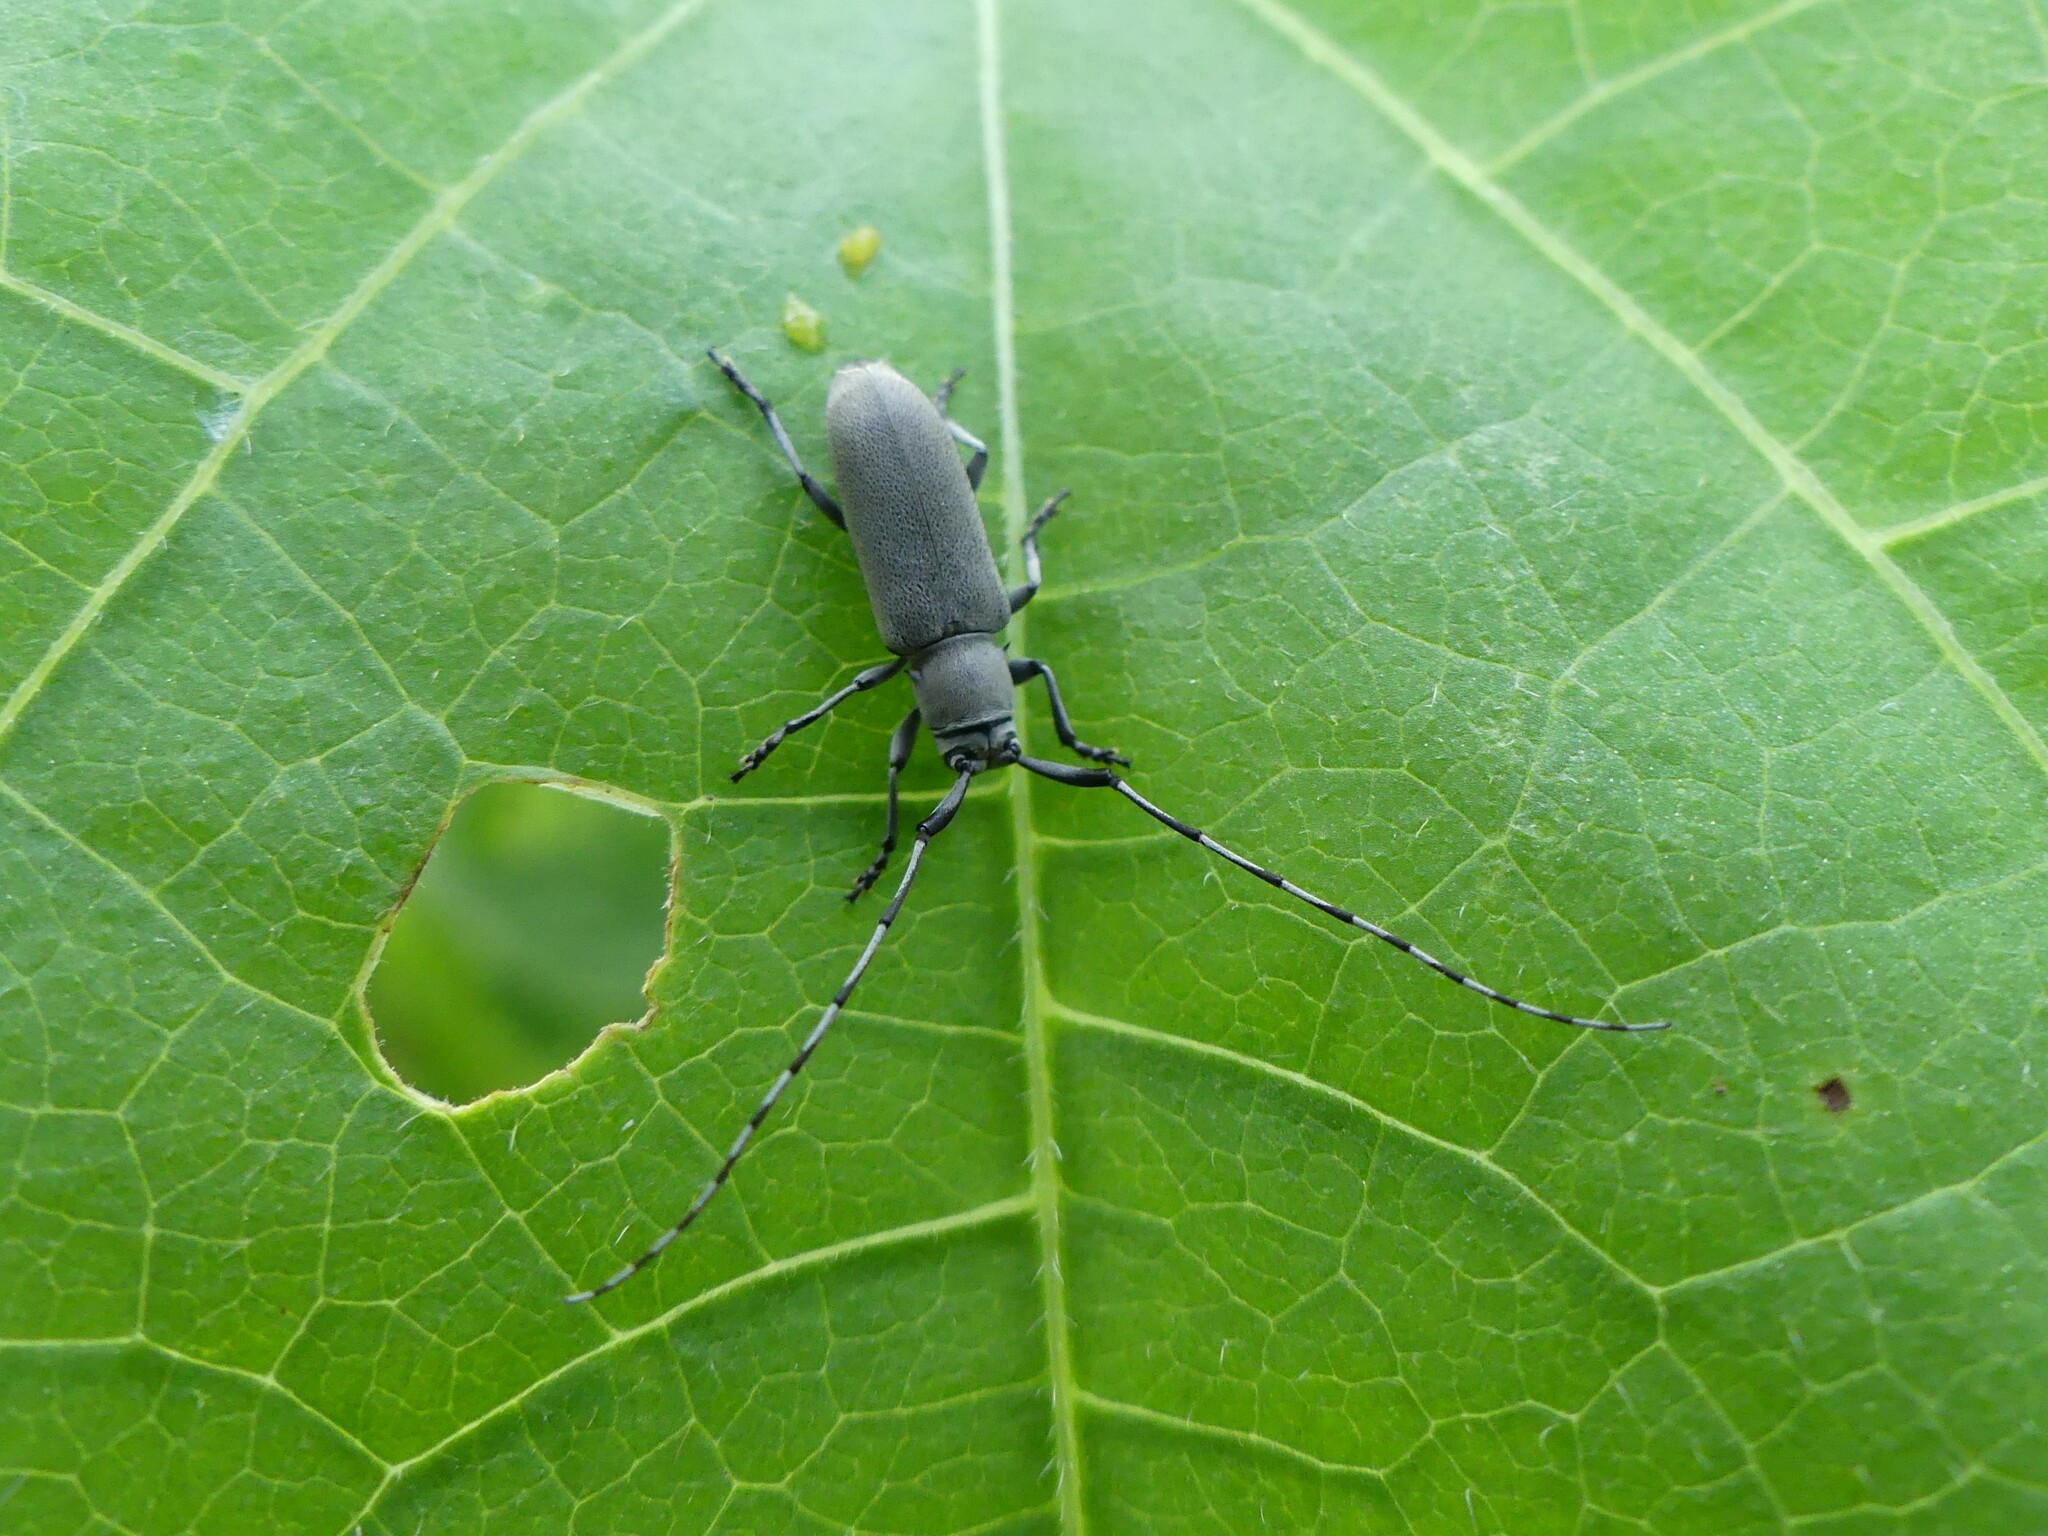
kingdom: Animalia
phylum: Arthropoda
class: Insecta
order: Coleoptera
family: Cerambycidae
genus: Dectes
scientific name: Dectes texanus
